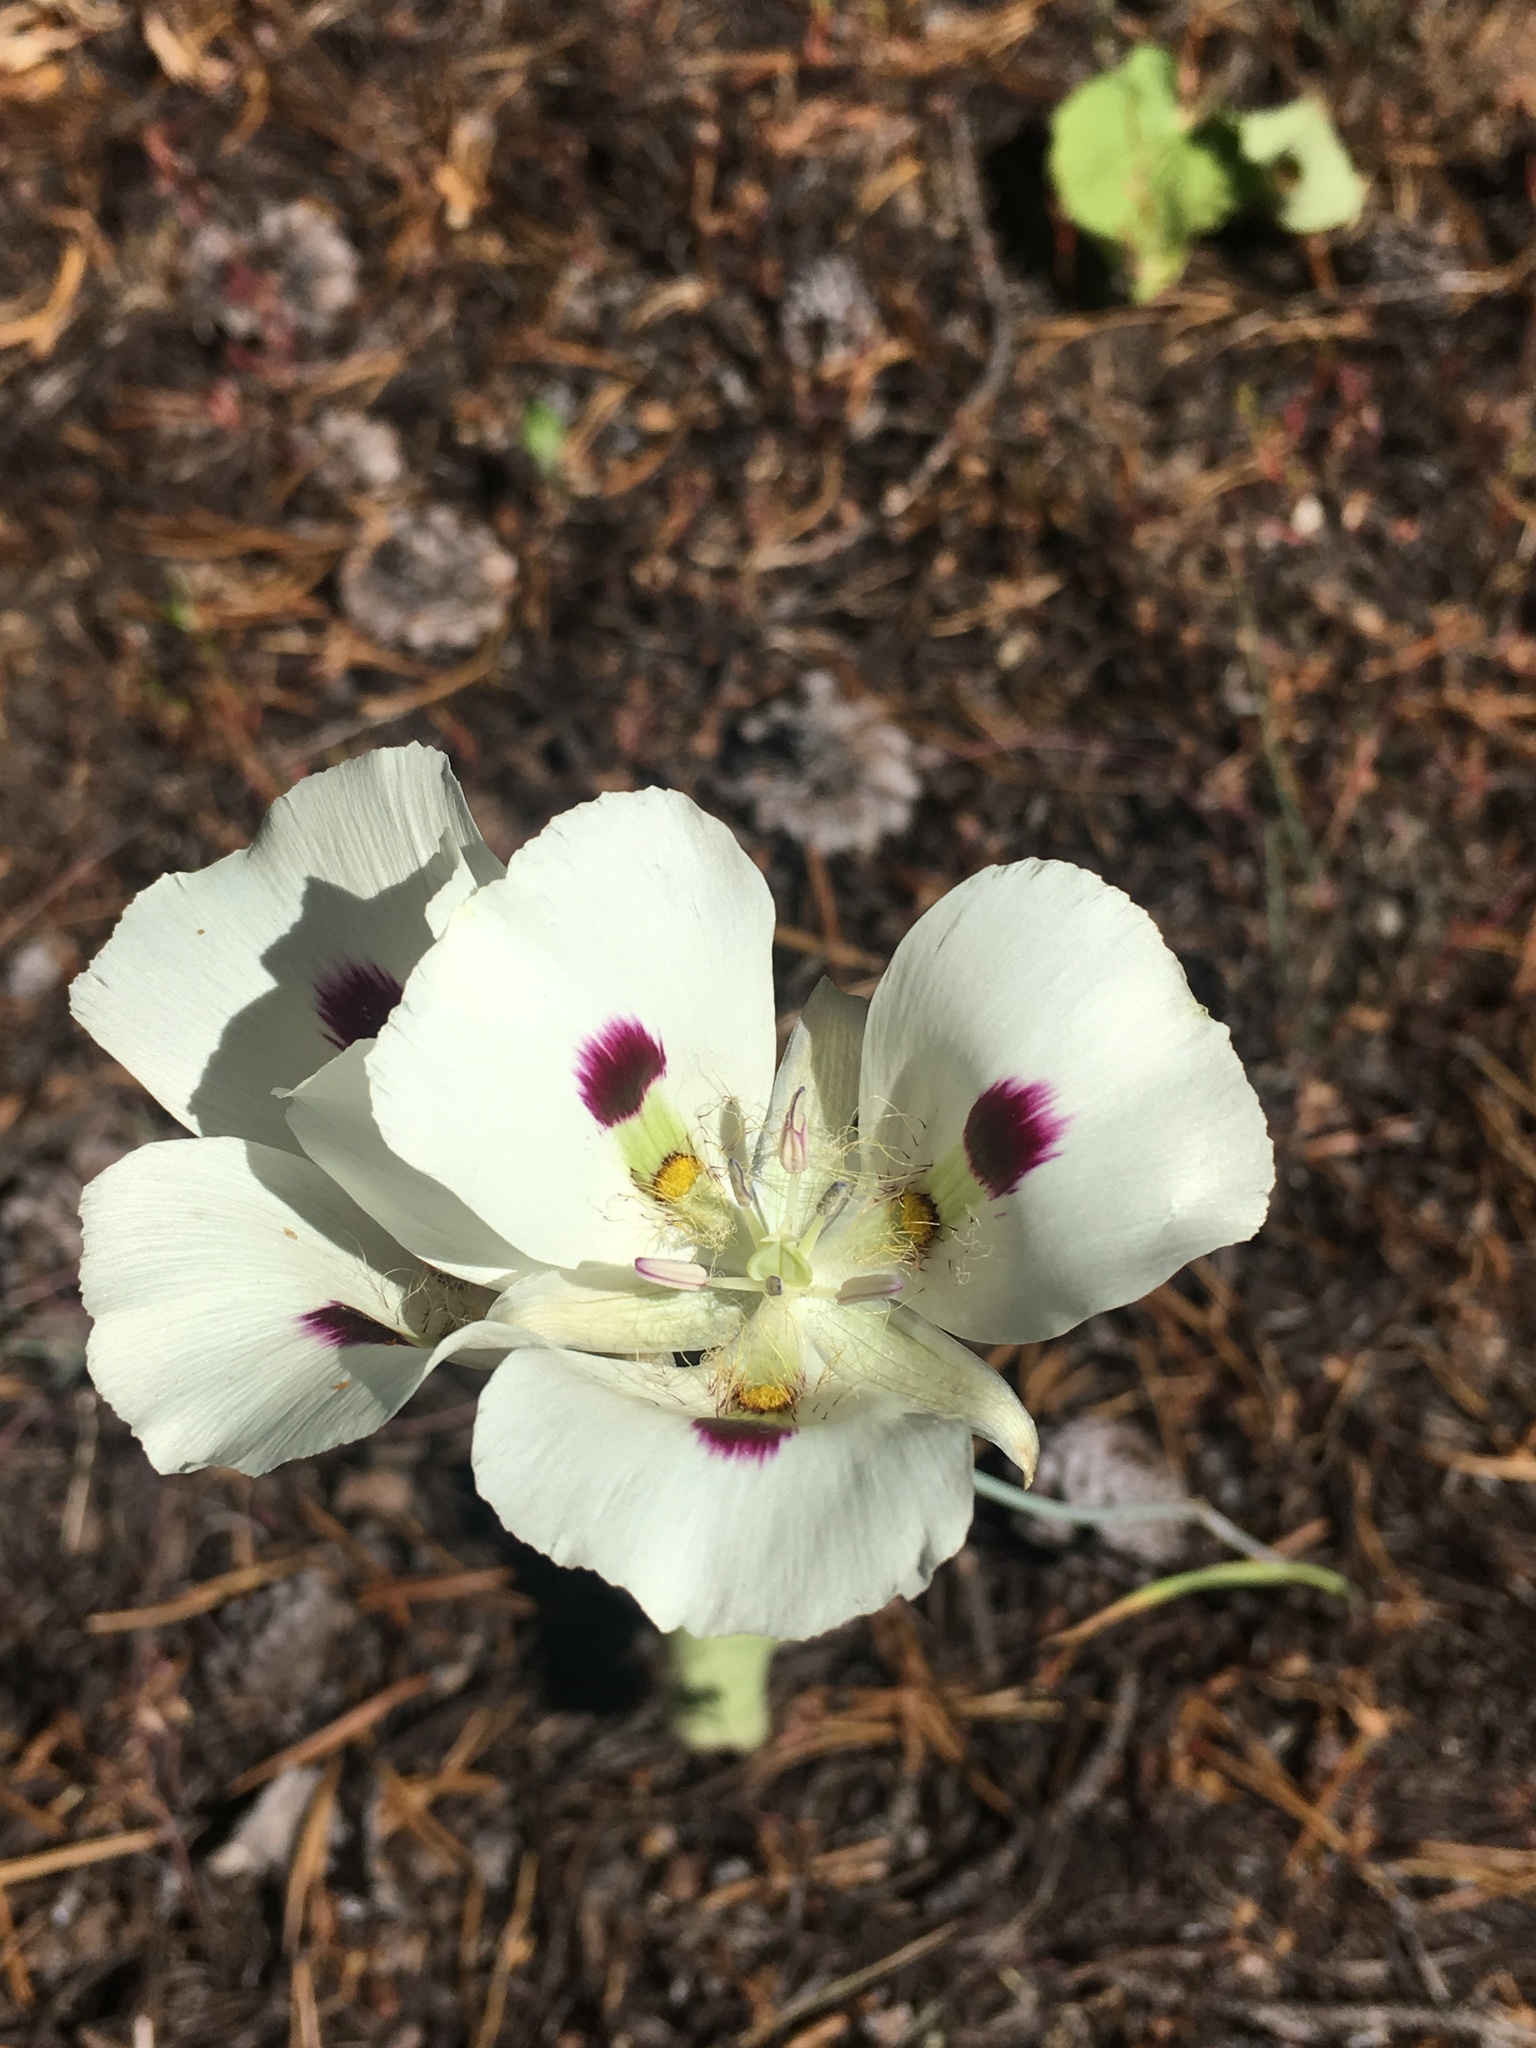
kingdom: Plantae
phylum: Tracheophyta
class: Liliopsida
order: Liliales
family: Liliaceae
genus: Calochortus
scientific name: Calochortus eurycarpus
